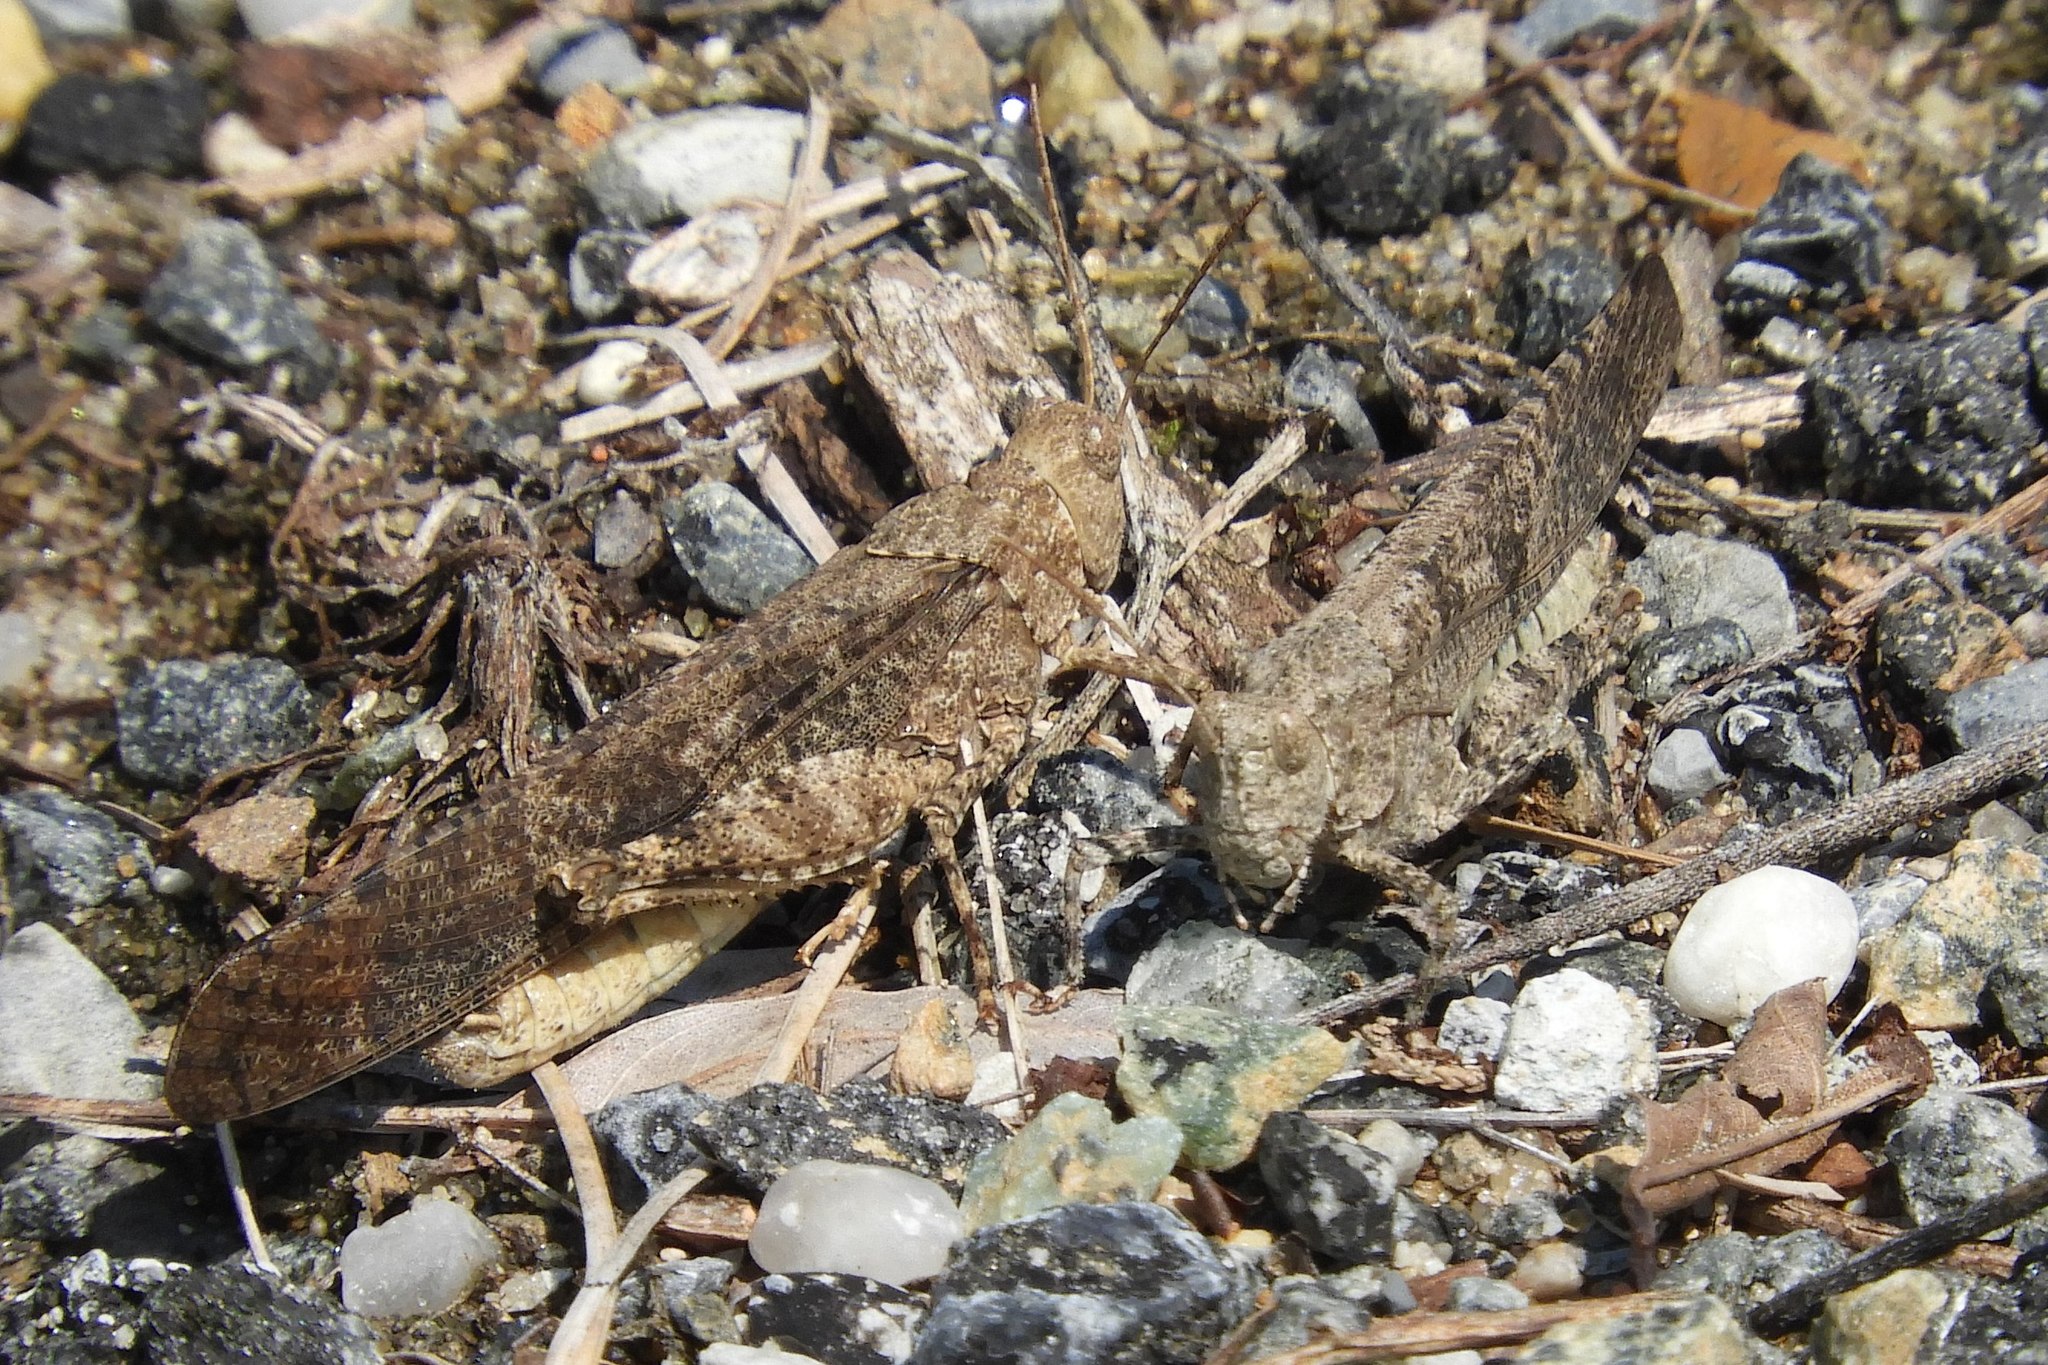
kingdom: Animalia
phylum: Arthropoda
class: Insecta
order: Orthoptera
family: Acrididae
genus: Dissosteira
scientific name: Dissosteira carolina
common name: Carolina grasshopper
